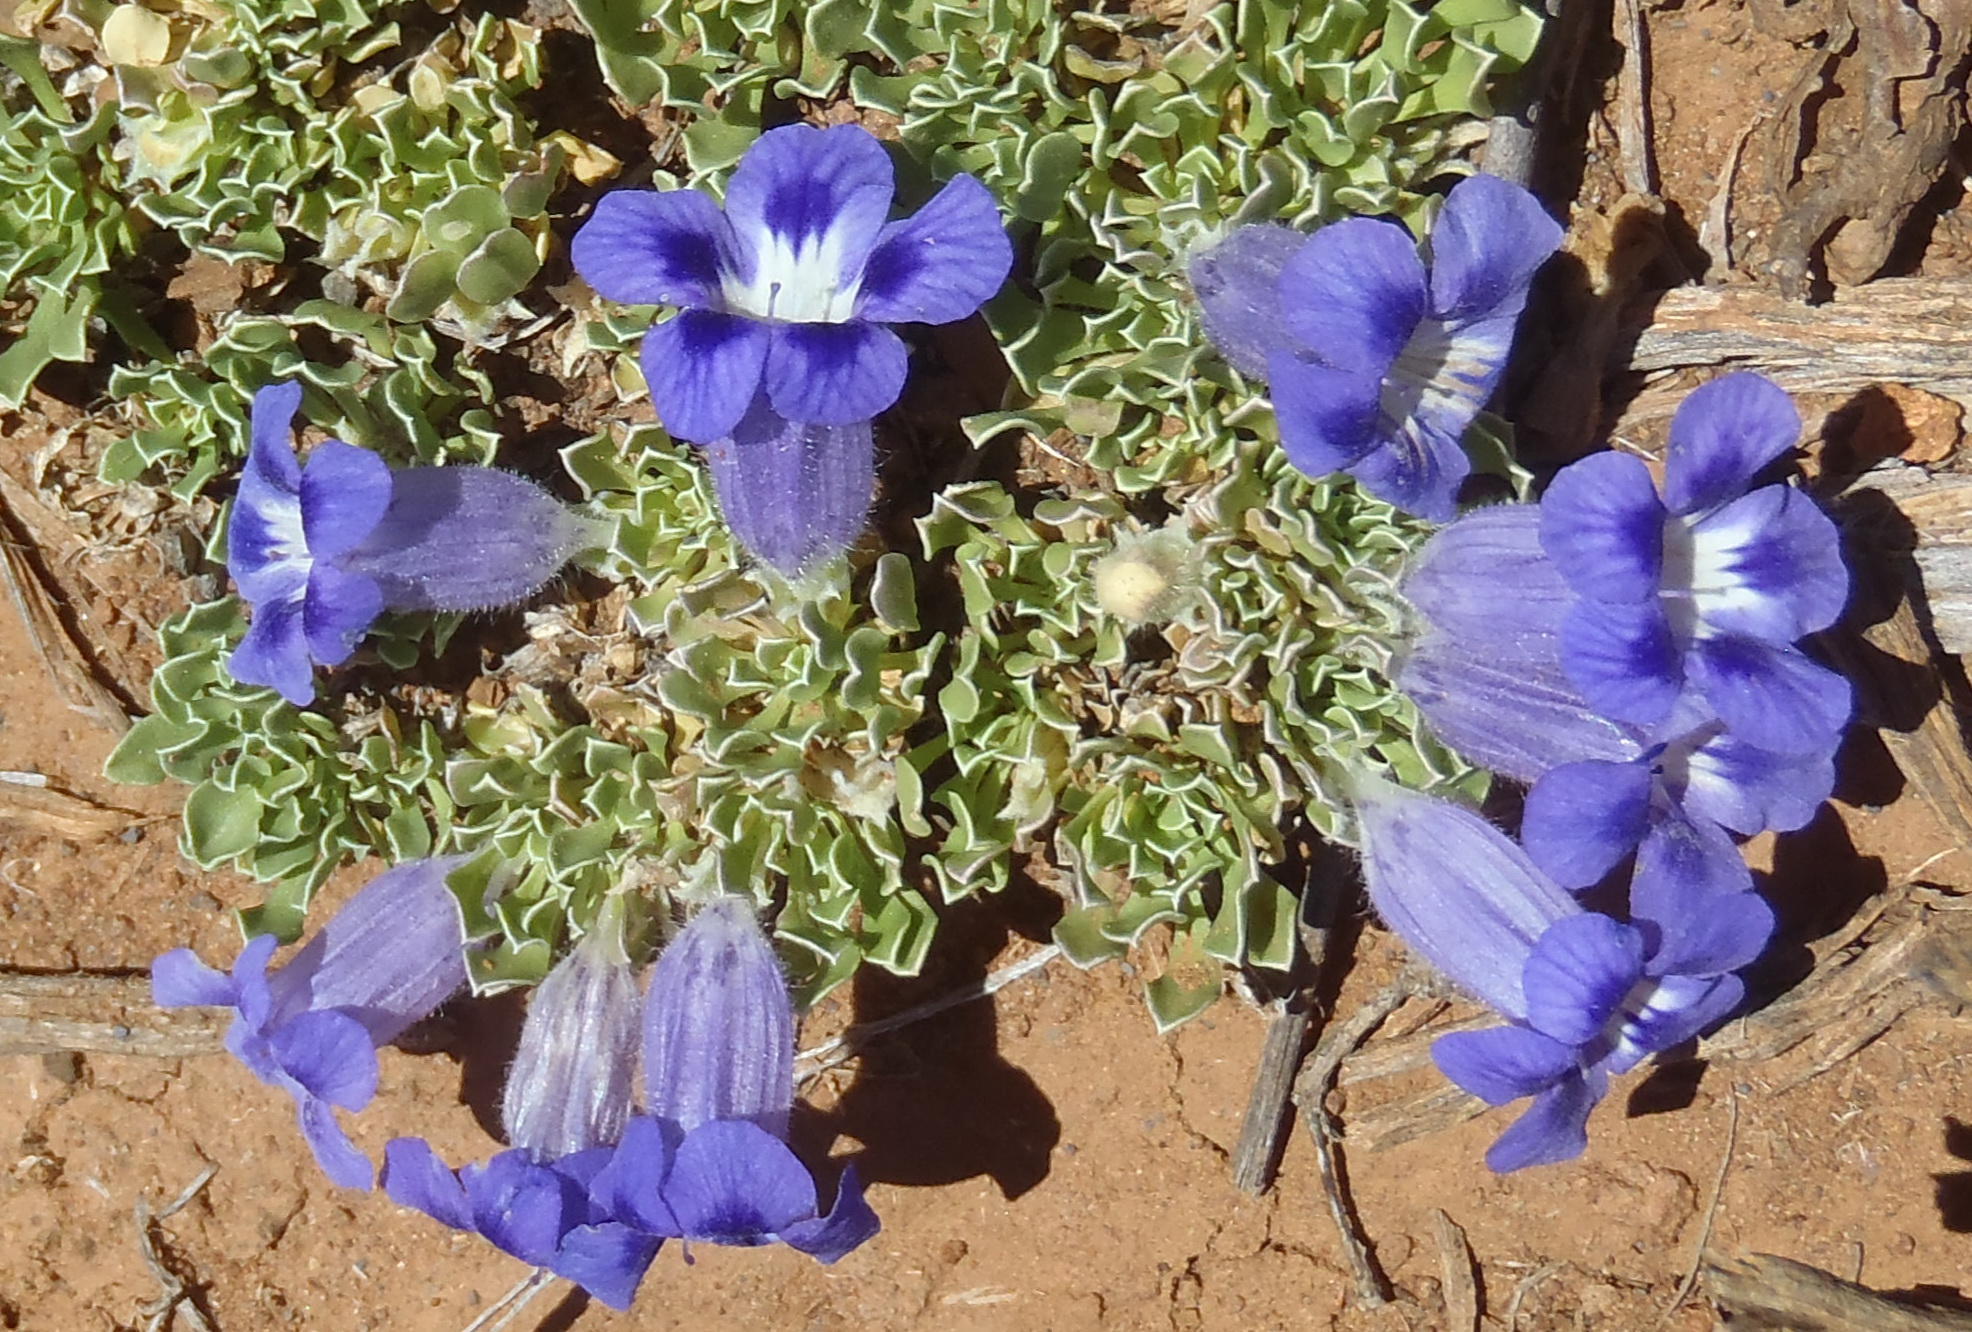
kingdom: Plantae
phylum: Tracheophyta
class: Magnoliopsida
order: Lamiales
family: Scrophulariaceae
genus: Aptosimum
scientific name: Aptosimum indivisum
